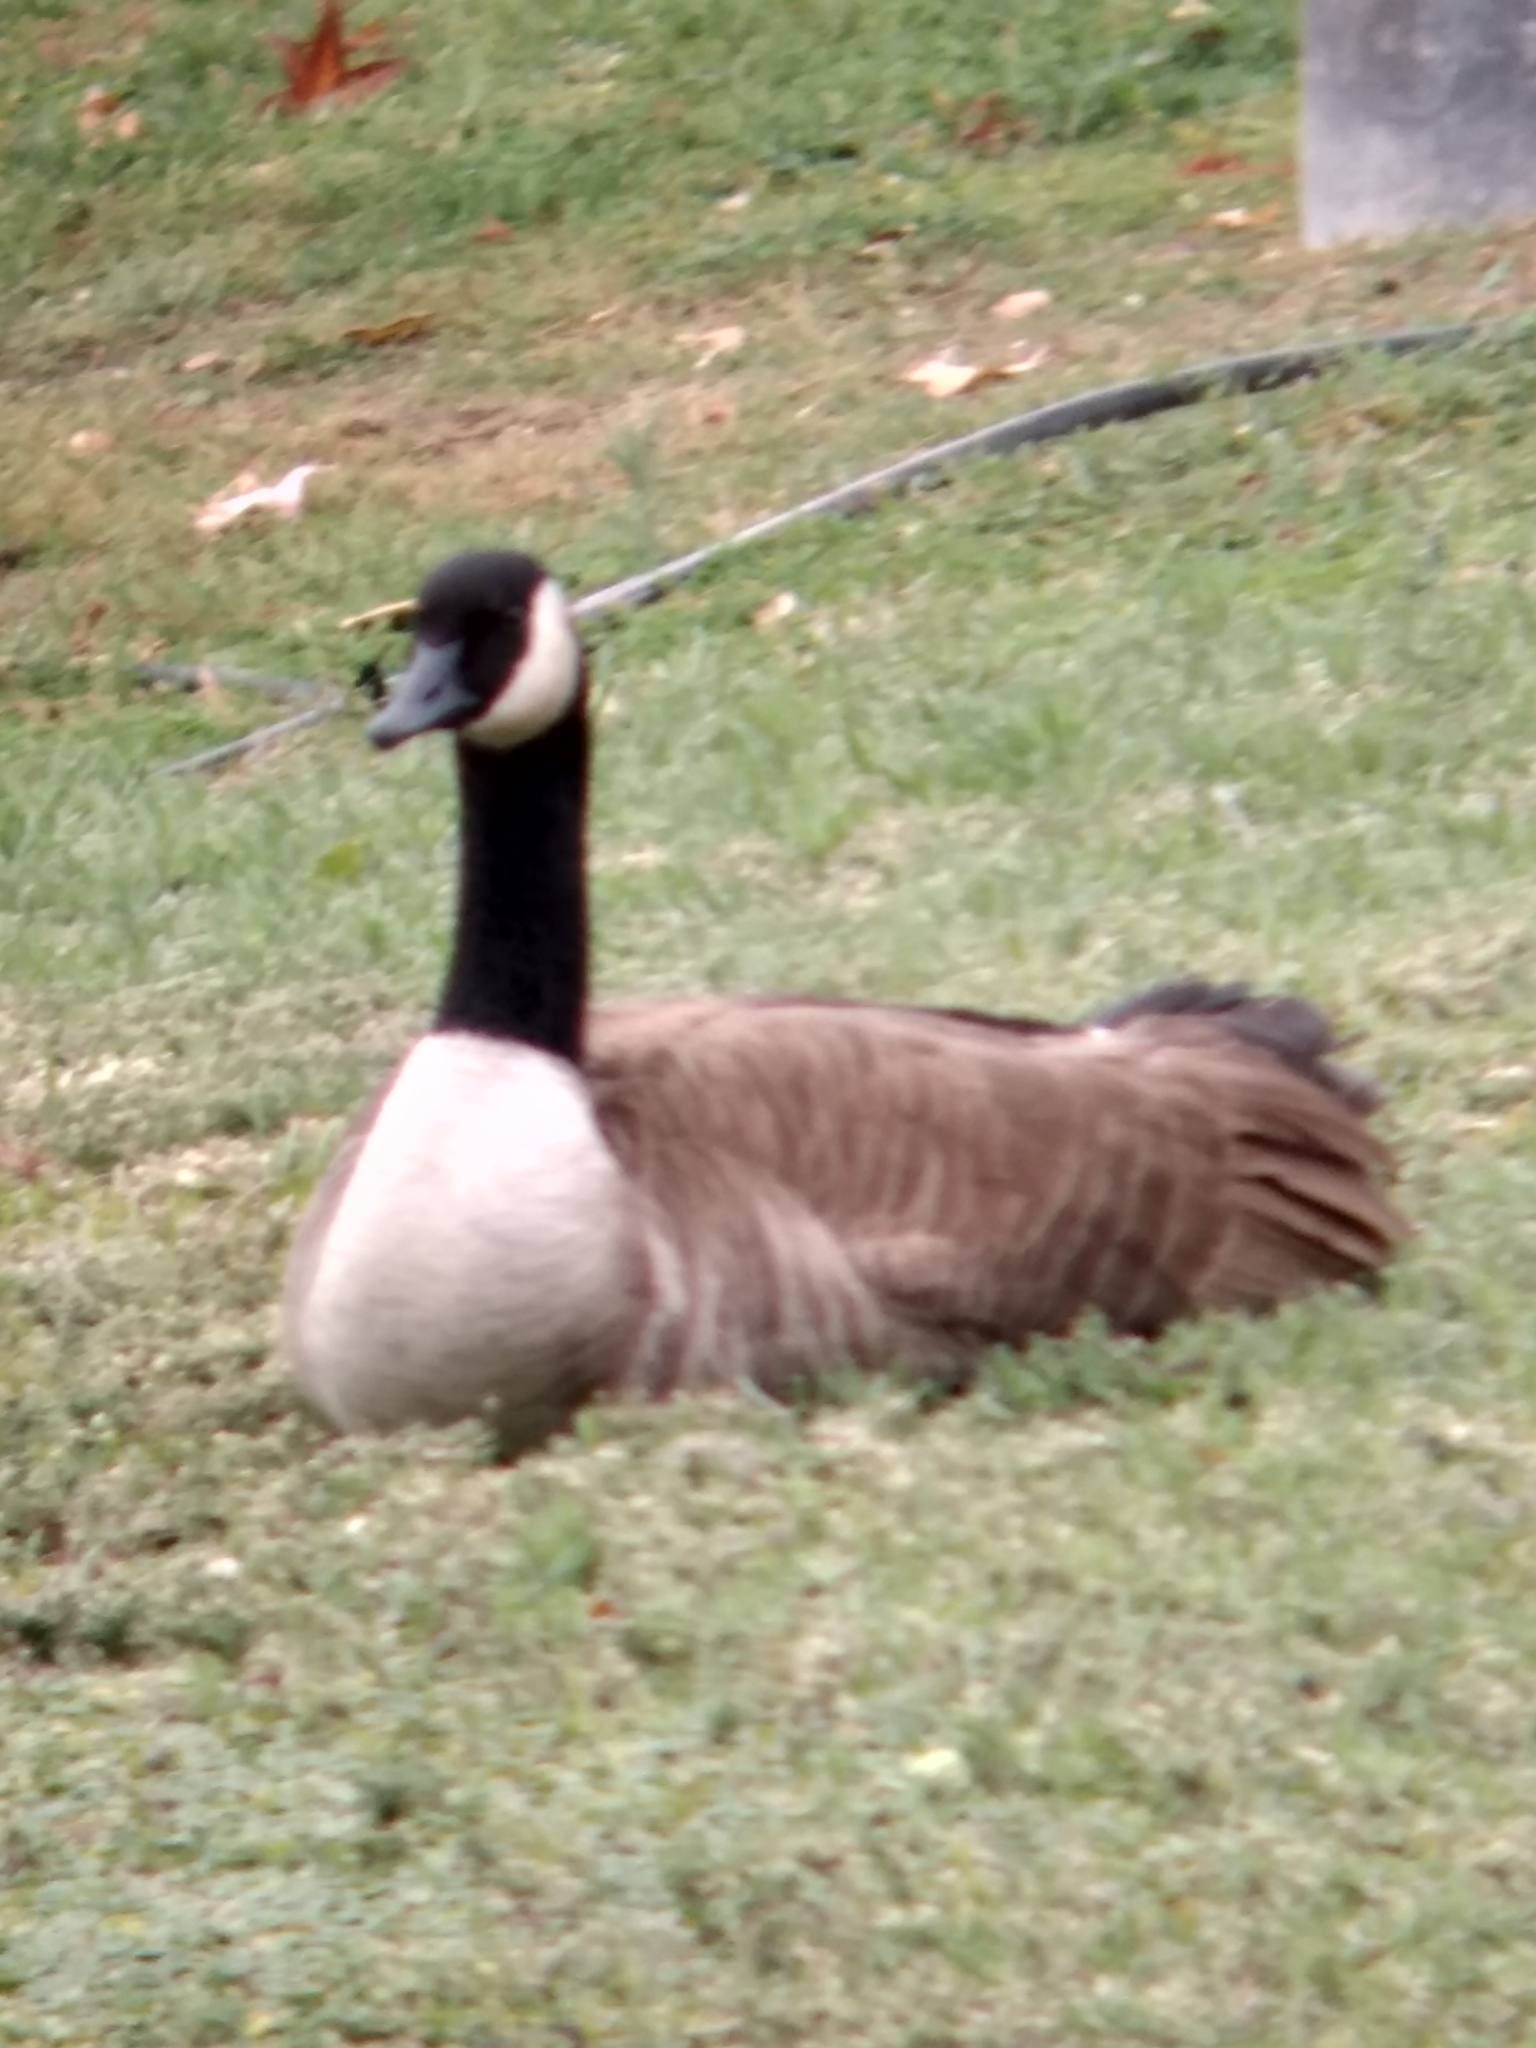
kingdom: Animalia
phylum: Chordata
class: Aves
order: Anseriformes
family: Anatidae
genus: Branta
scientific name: Branta canadensis
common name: Canada goose
